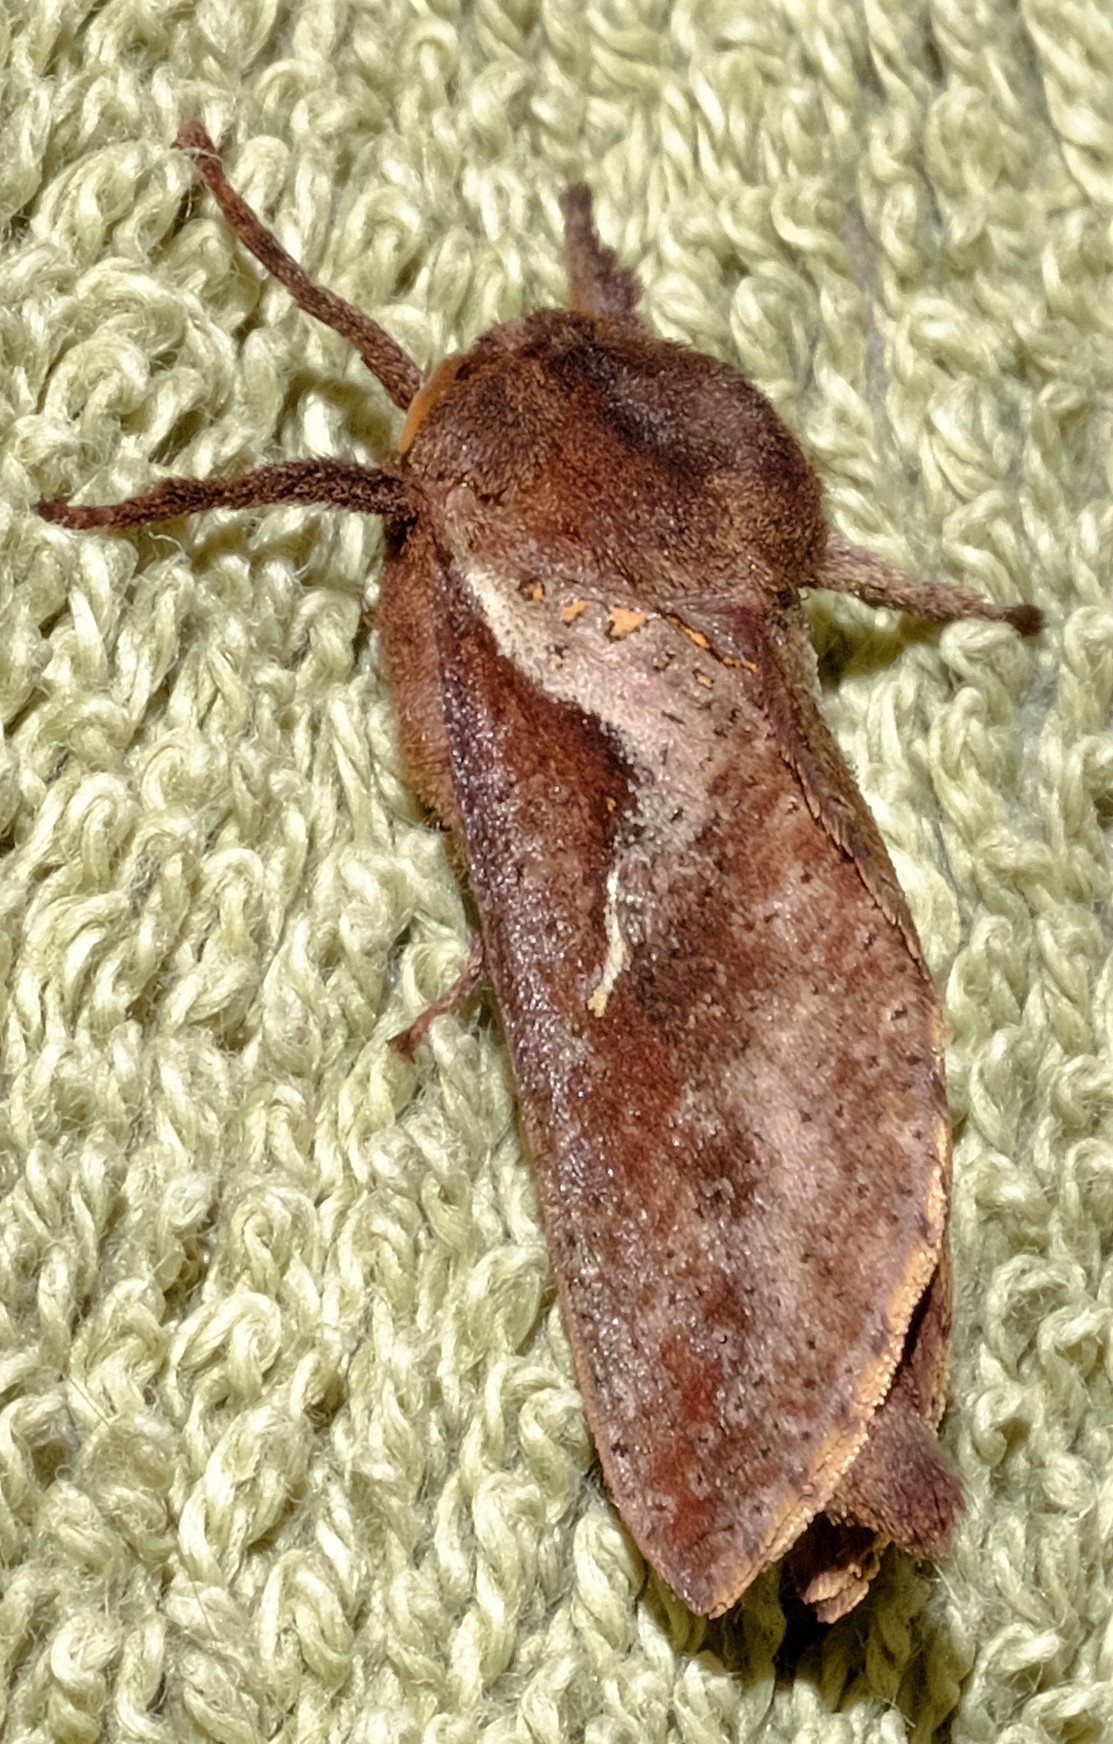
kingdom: Animalia
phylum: Arthropoda
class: Insecta
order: Lepidoptera
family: Hepialidae
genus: Elhamma
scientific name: Elhamma australasiae
